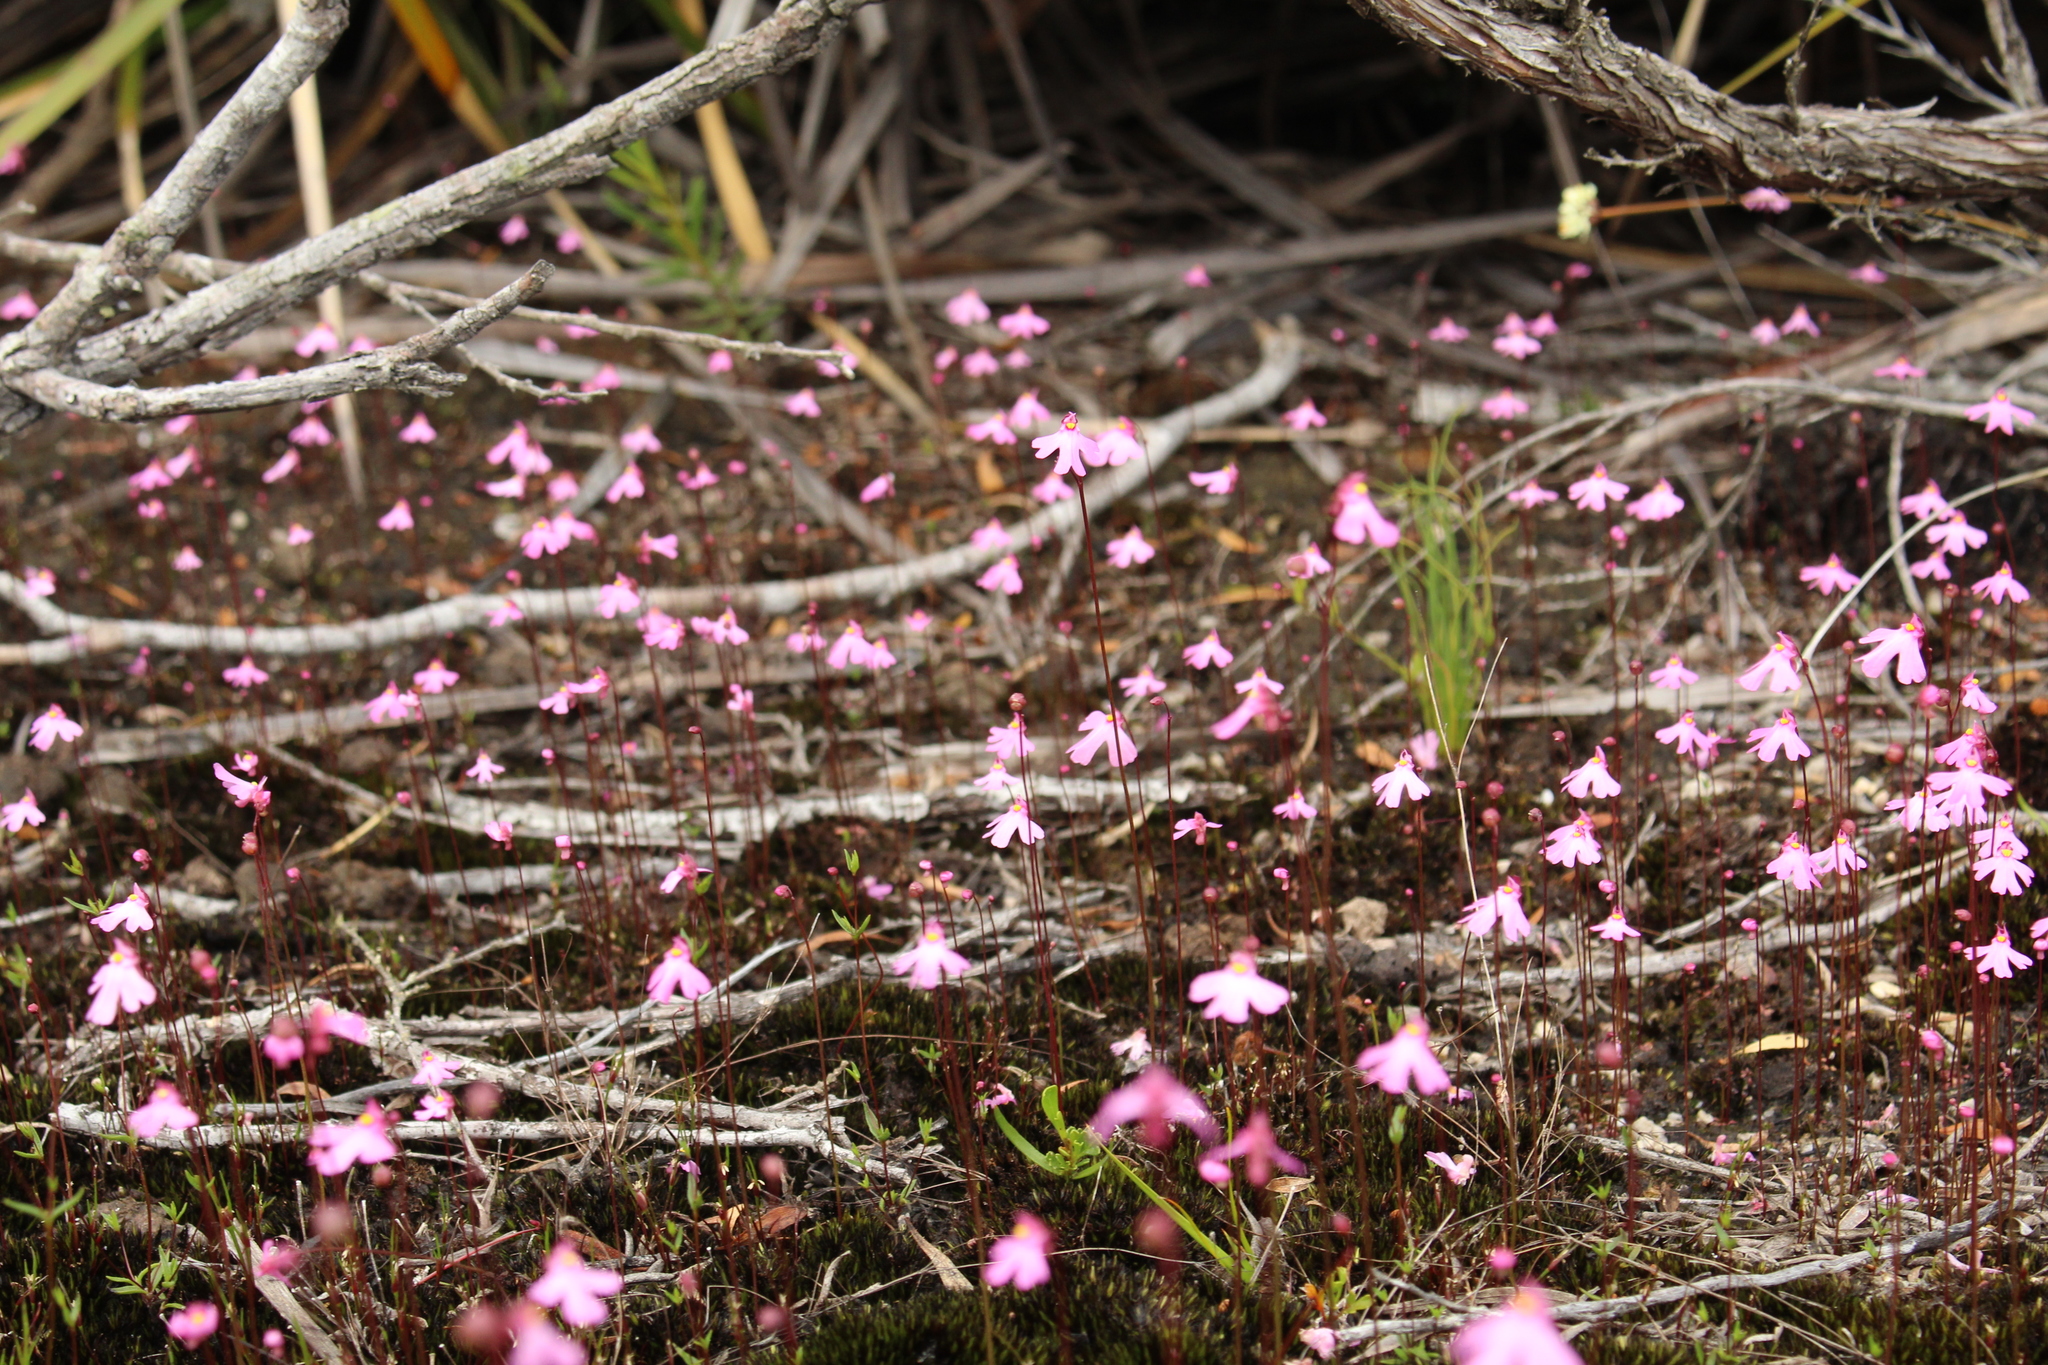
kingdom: Plantae
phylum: Tracheophyta
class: Magnoliopsida
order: Lamiales
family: Lentibulariaceae
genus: Utricularia
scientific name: Utricularia multifida
